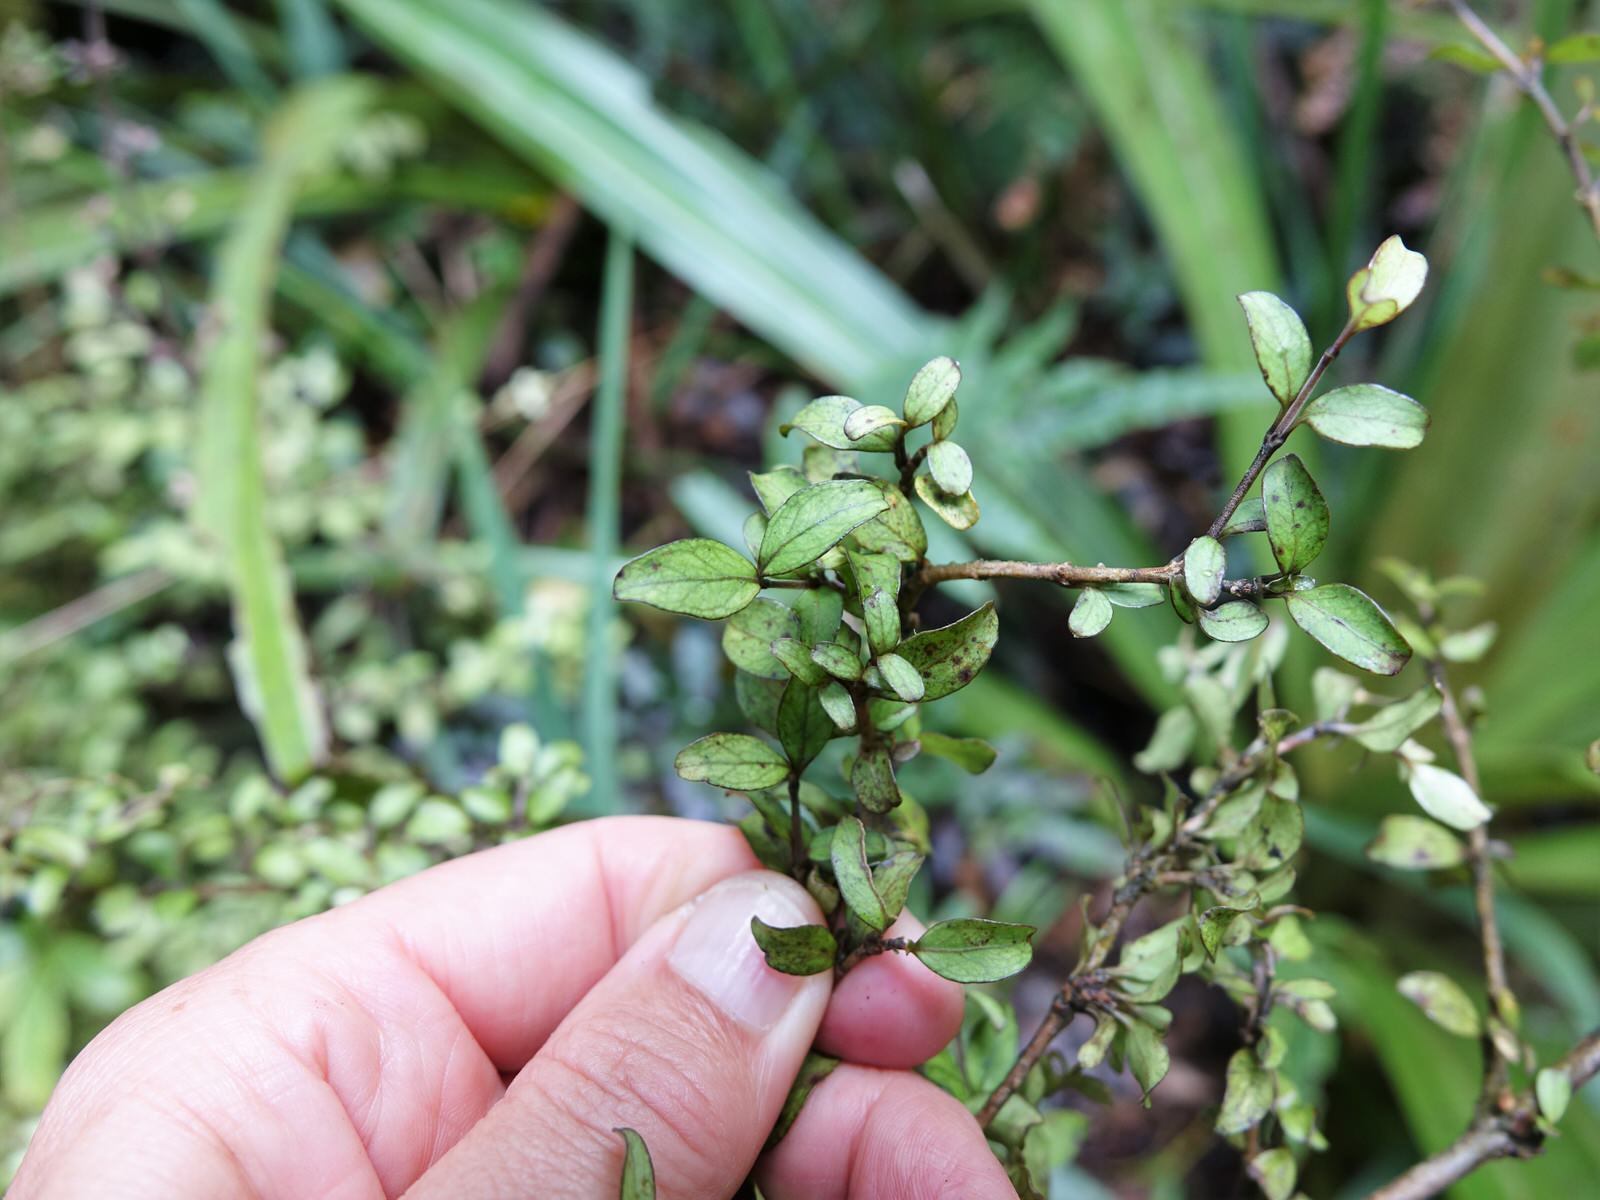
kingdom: Plantae
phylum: Tracheophyta
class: Magnoliopsida
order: Gentianales
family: Rubiaceae
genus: Coprosma
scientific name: Coprosma colensoi
